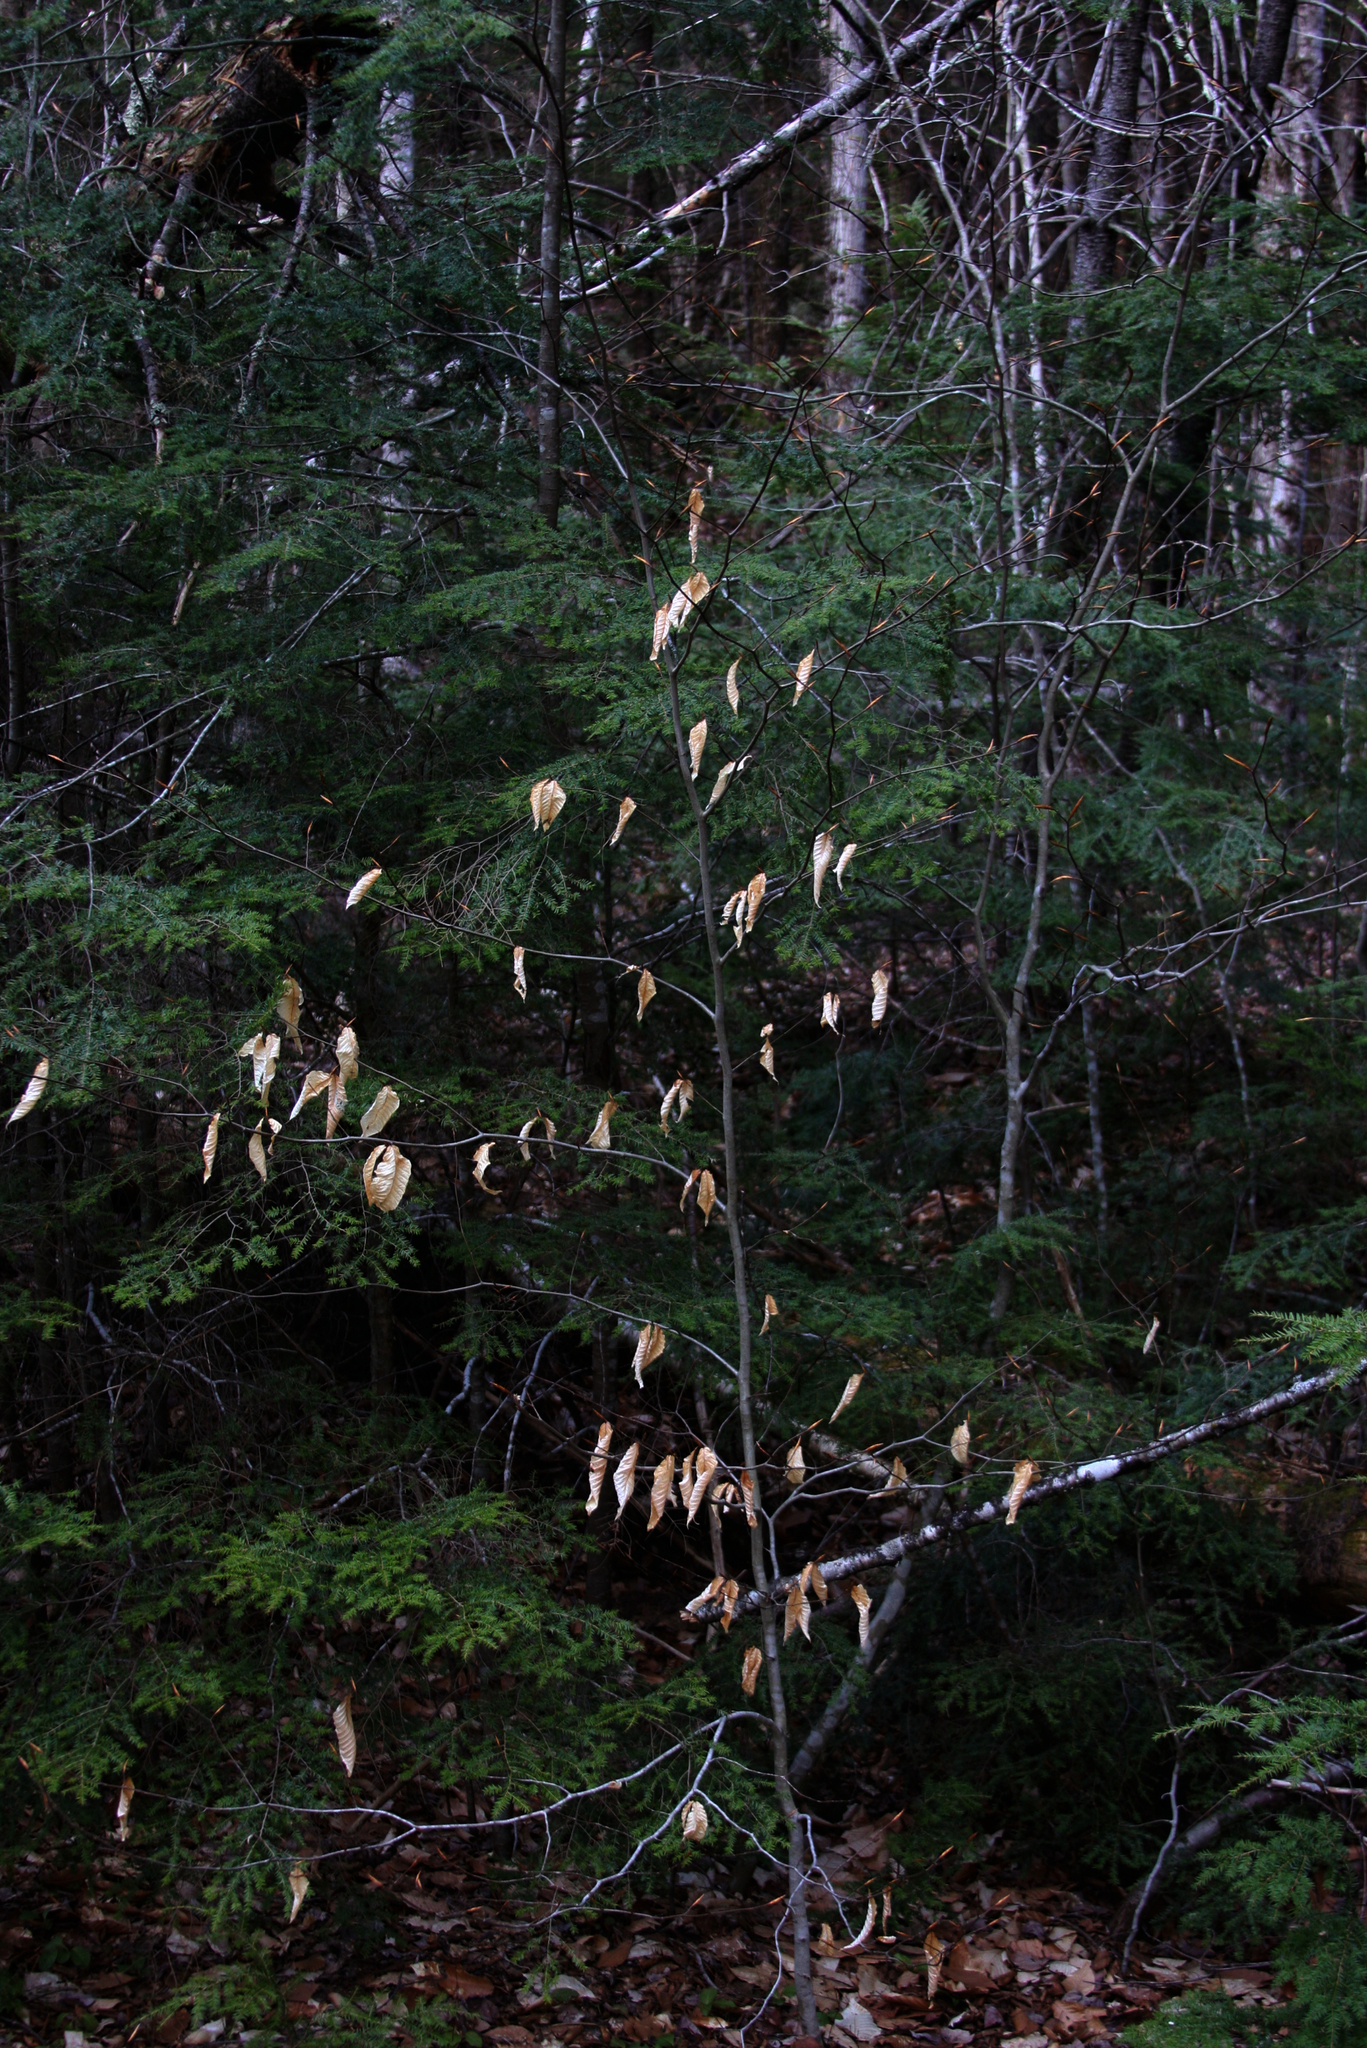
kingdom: Plantae
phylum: Tracheophyta
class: Magnoliopsida
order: Fagales
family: Fagaceae
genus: Fagus
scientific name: Fagus grandifolia
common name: American beech
